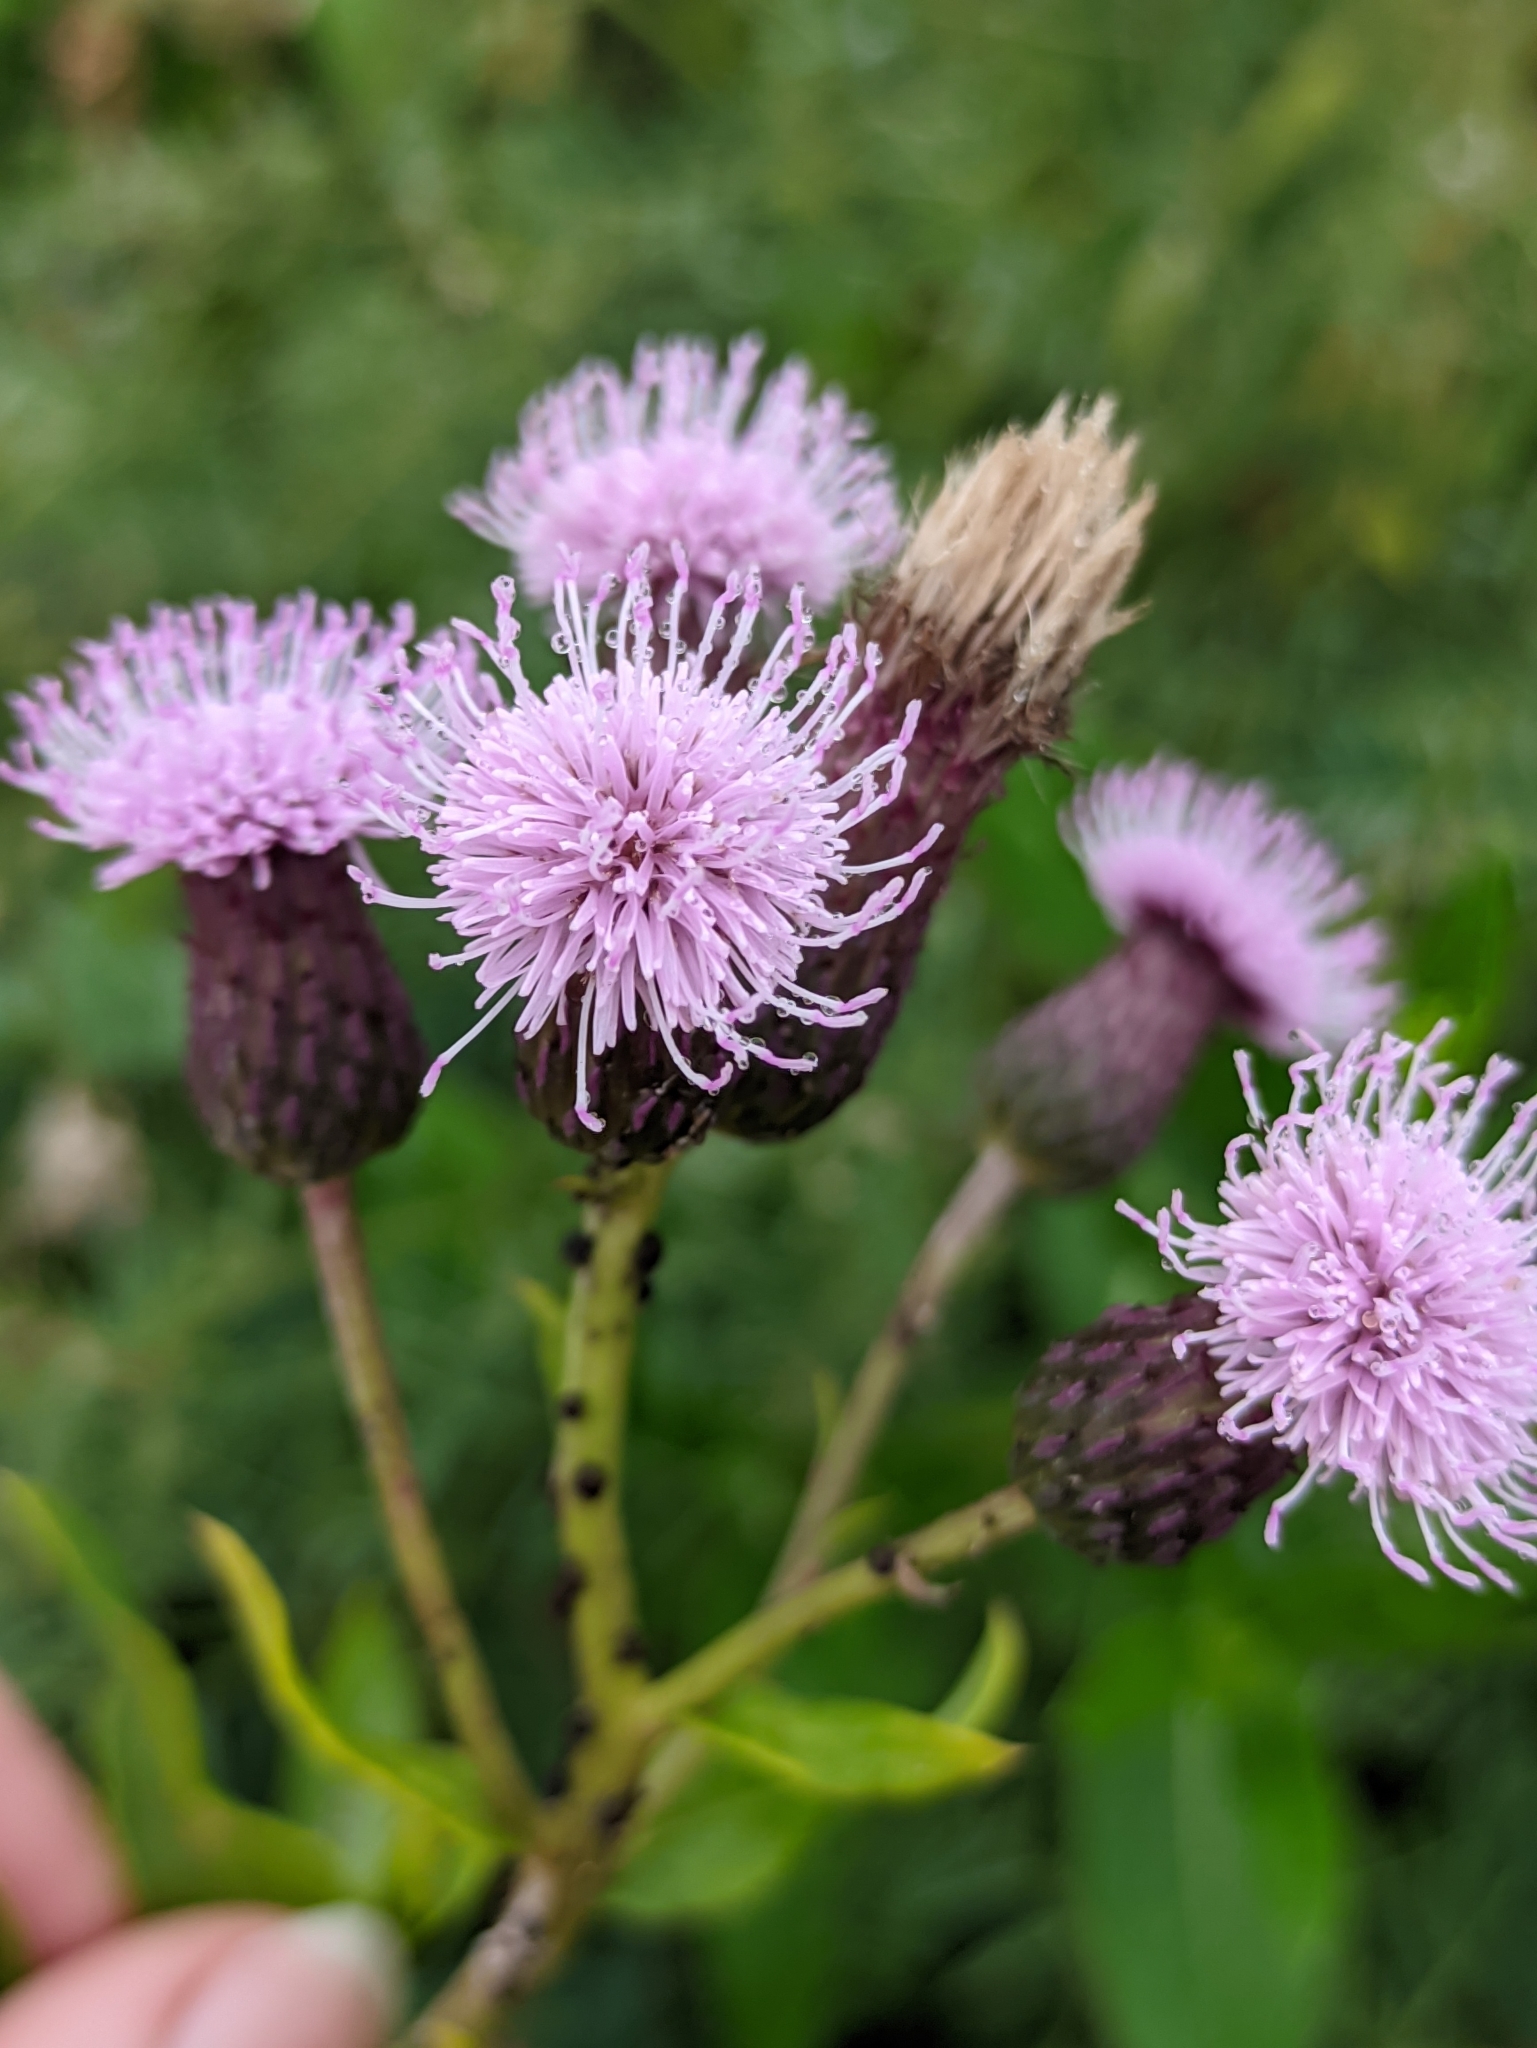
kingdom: Plantae
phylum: Tracheophyta
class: Magnoliopsida
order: Asterales
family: Asteraceae
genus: Cirsium
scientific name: Cirsium arvense
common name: Creeping thistle
